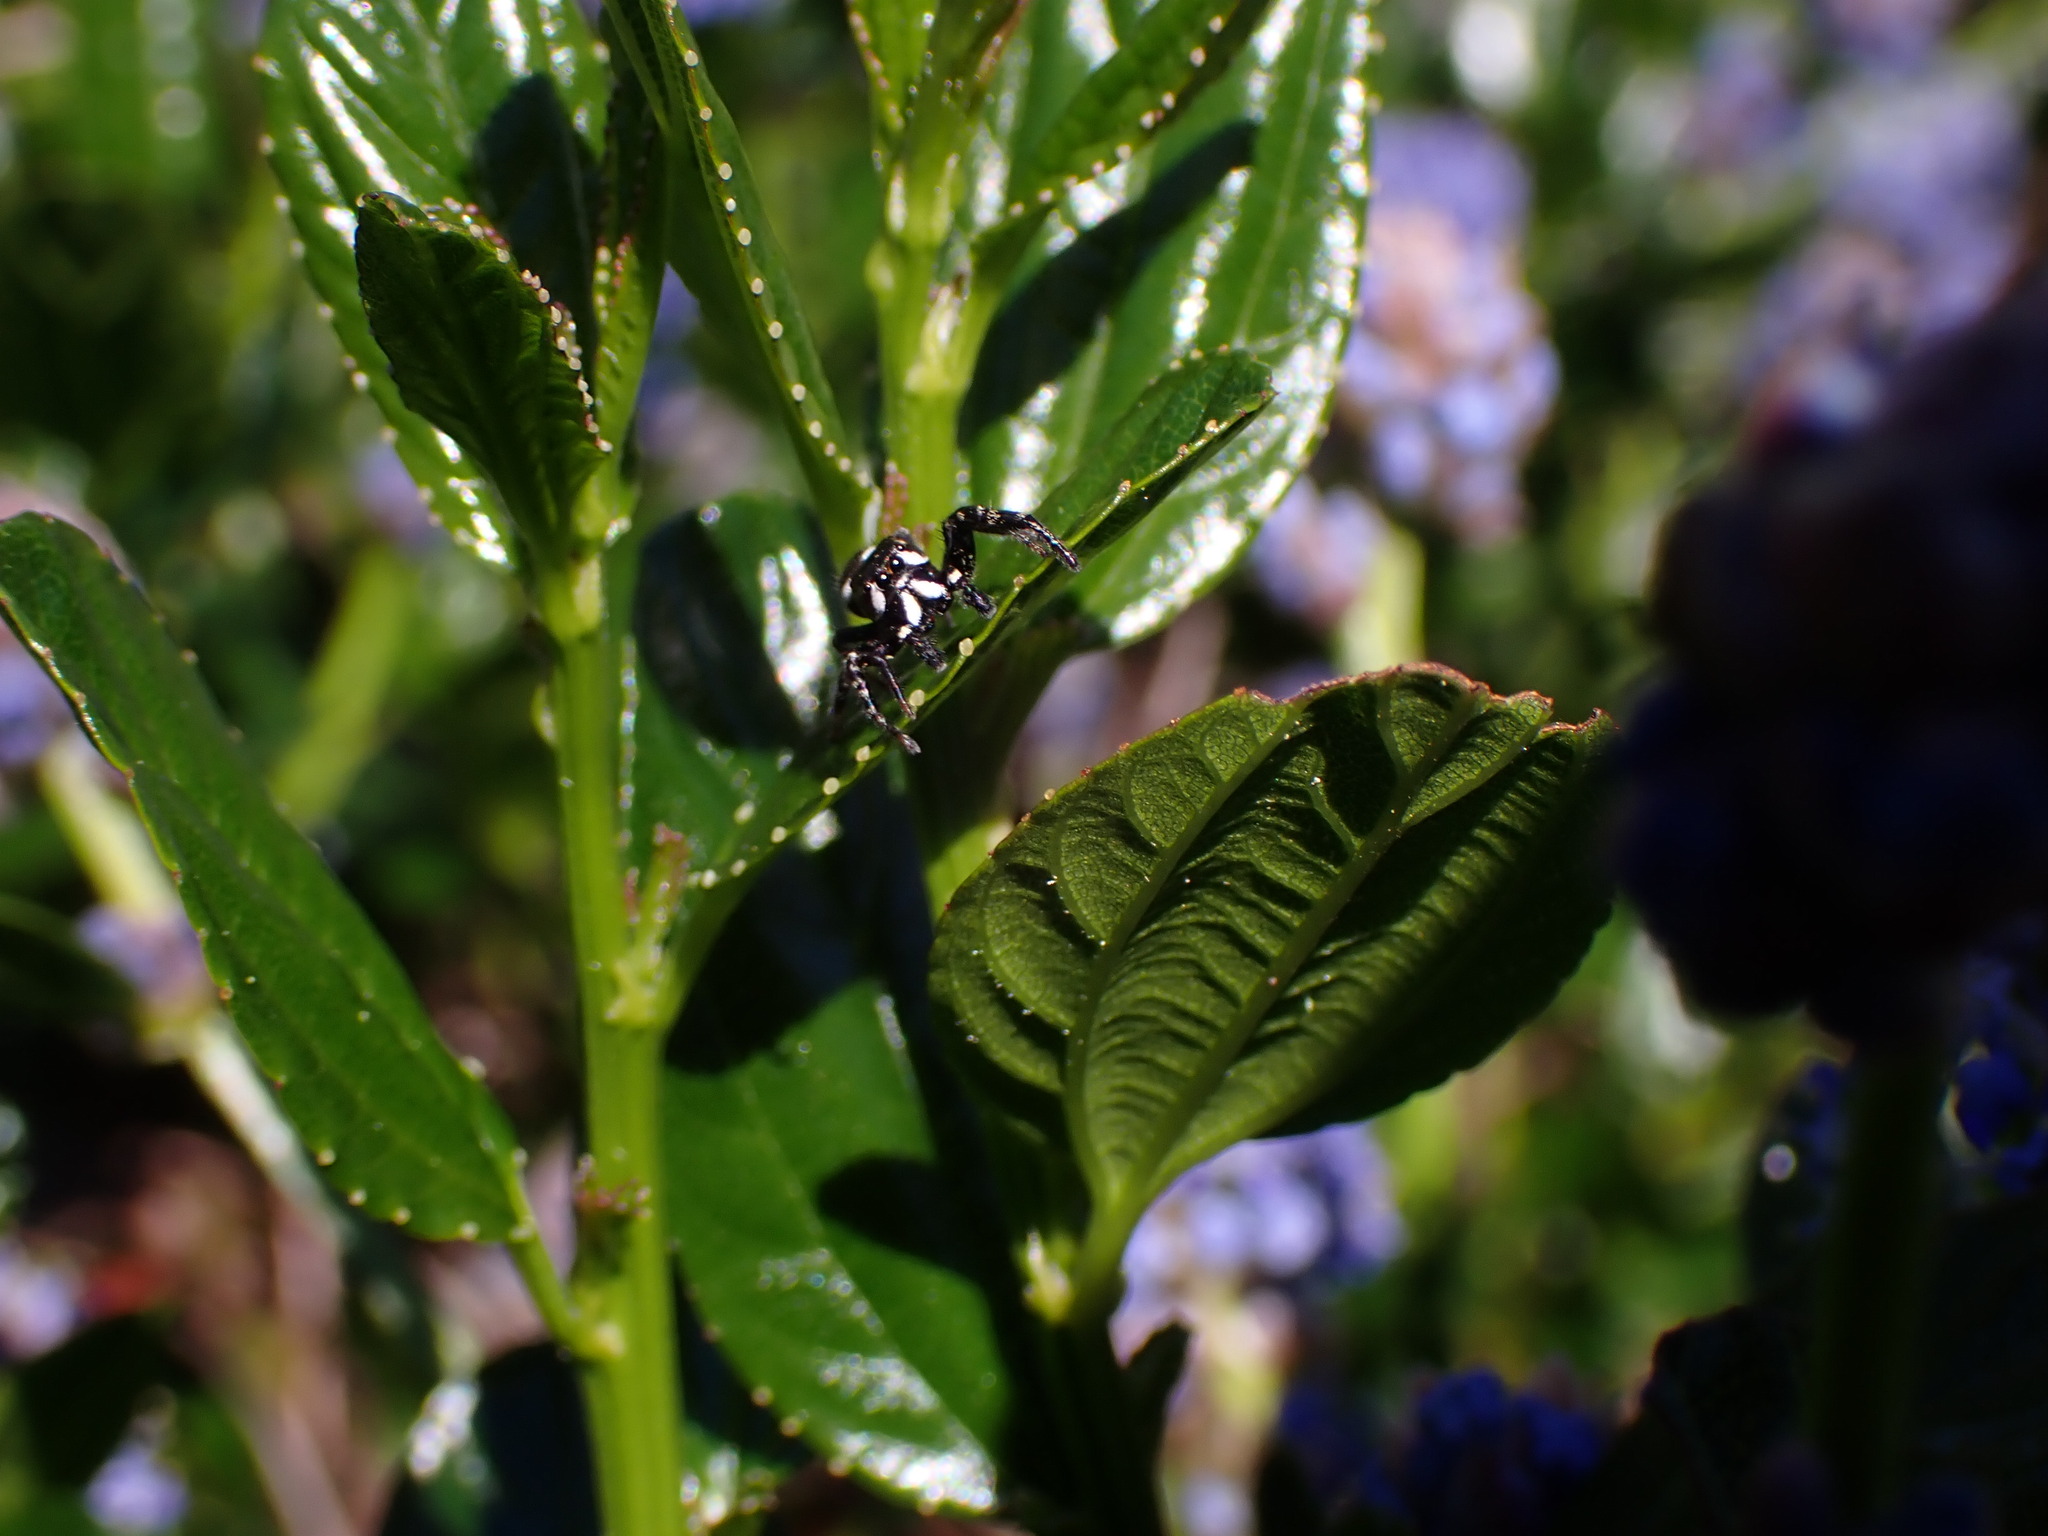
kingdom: Animalia
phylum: Arthropoda
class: Arachnida
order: Araneae
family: Salticidae
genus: Metaphidippus
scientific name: Metaphidippus manni
